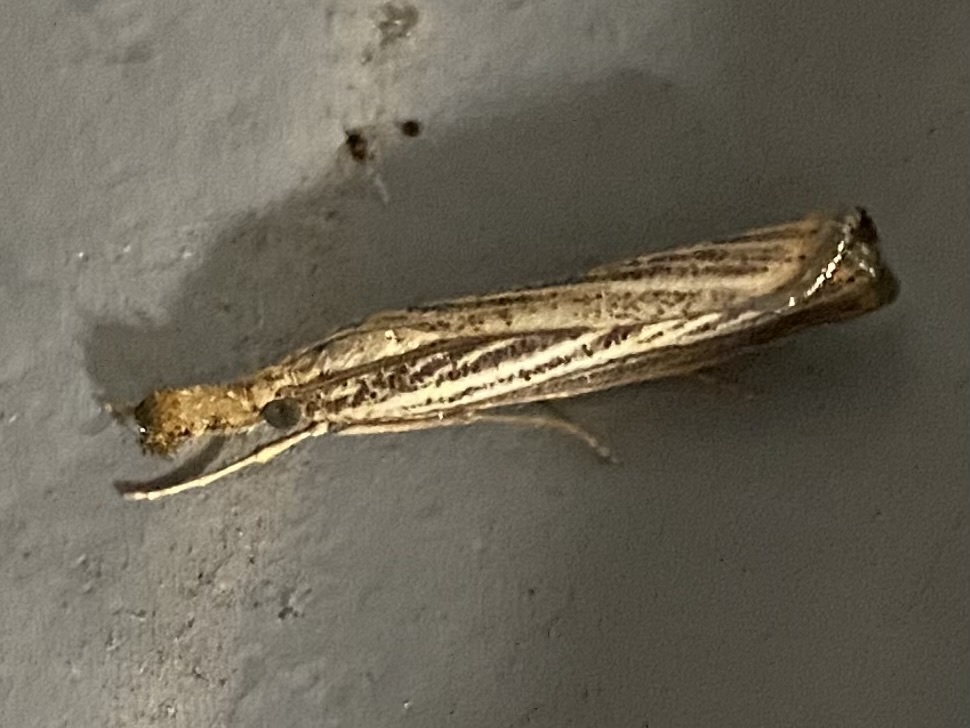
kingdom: Animalia
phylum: Arthropoda
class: Insecta
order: Lepidoptera
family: Crambidae
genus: Agriphila
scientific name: Agriphila vulgivagellus
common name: Vagabond crambus moth
